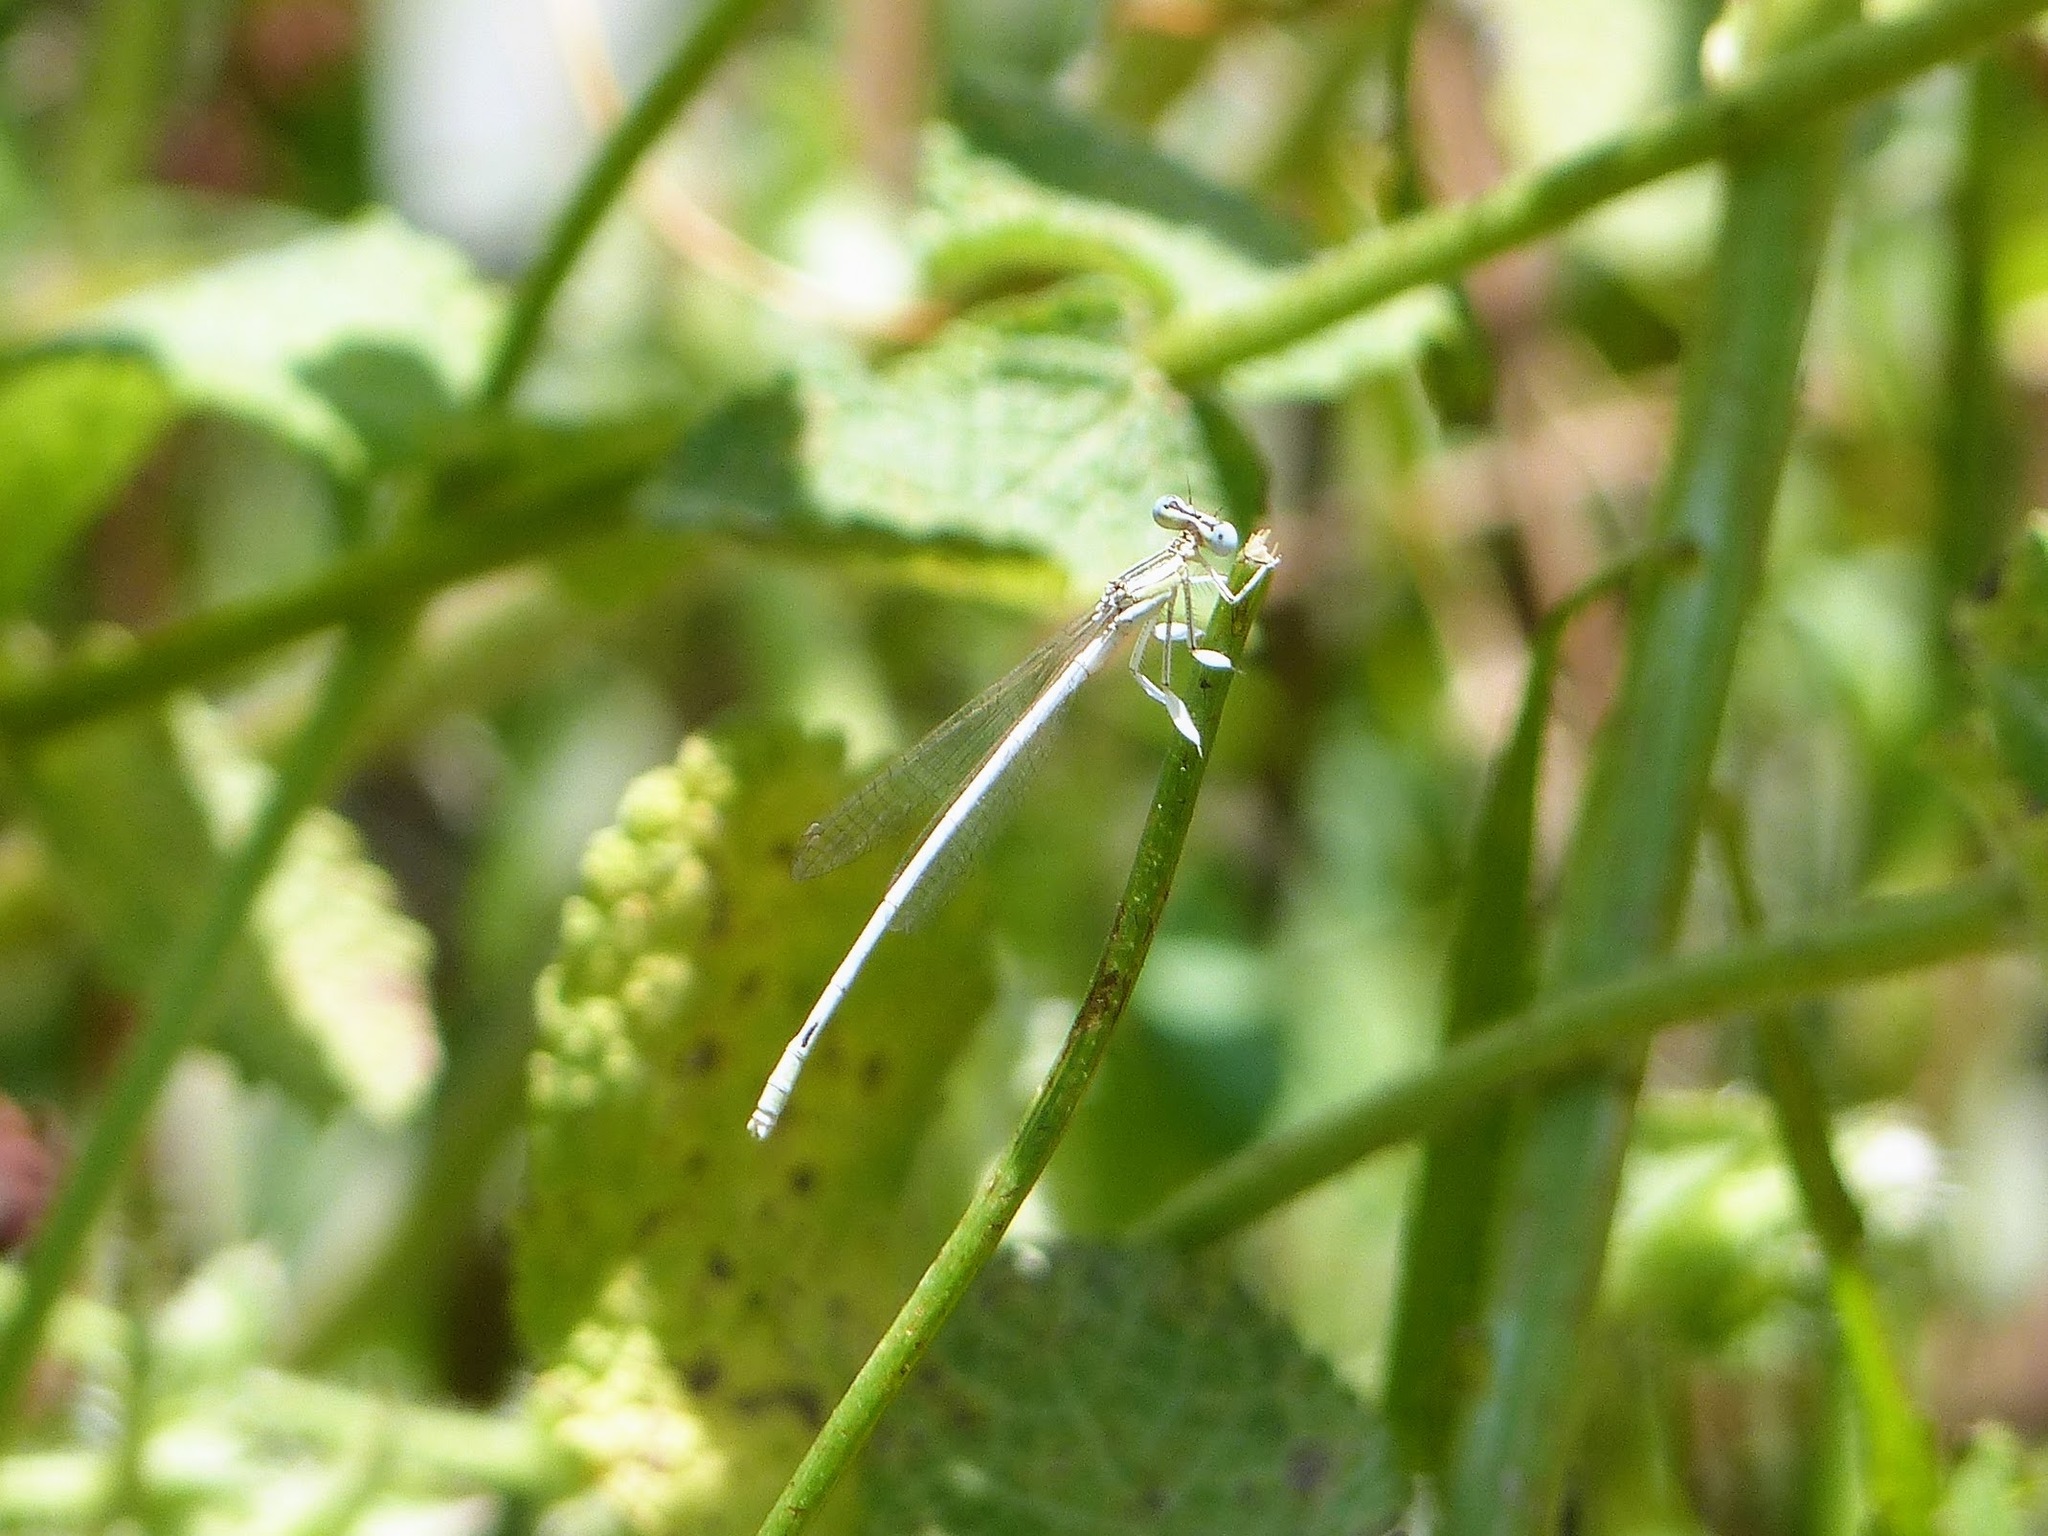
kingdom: Animalia
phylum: Arthropoda
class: Insecta
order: Odonata
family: Platycnemididae
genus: Platycnemis
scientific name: Platycnemis latipes
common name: White featherleg
